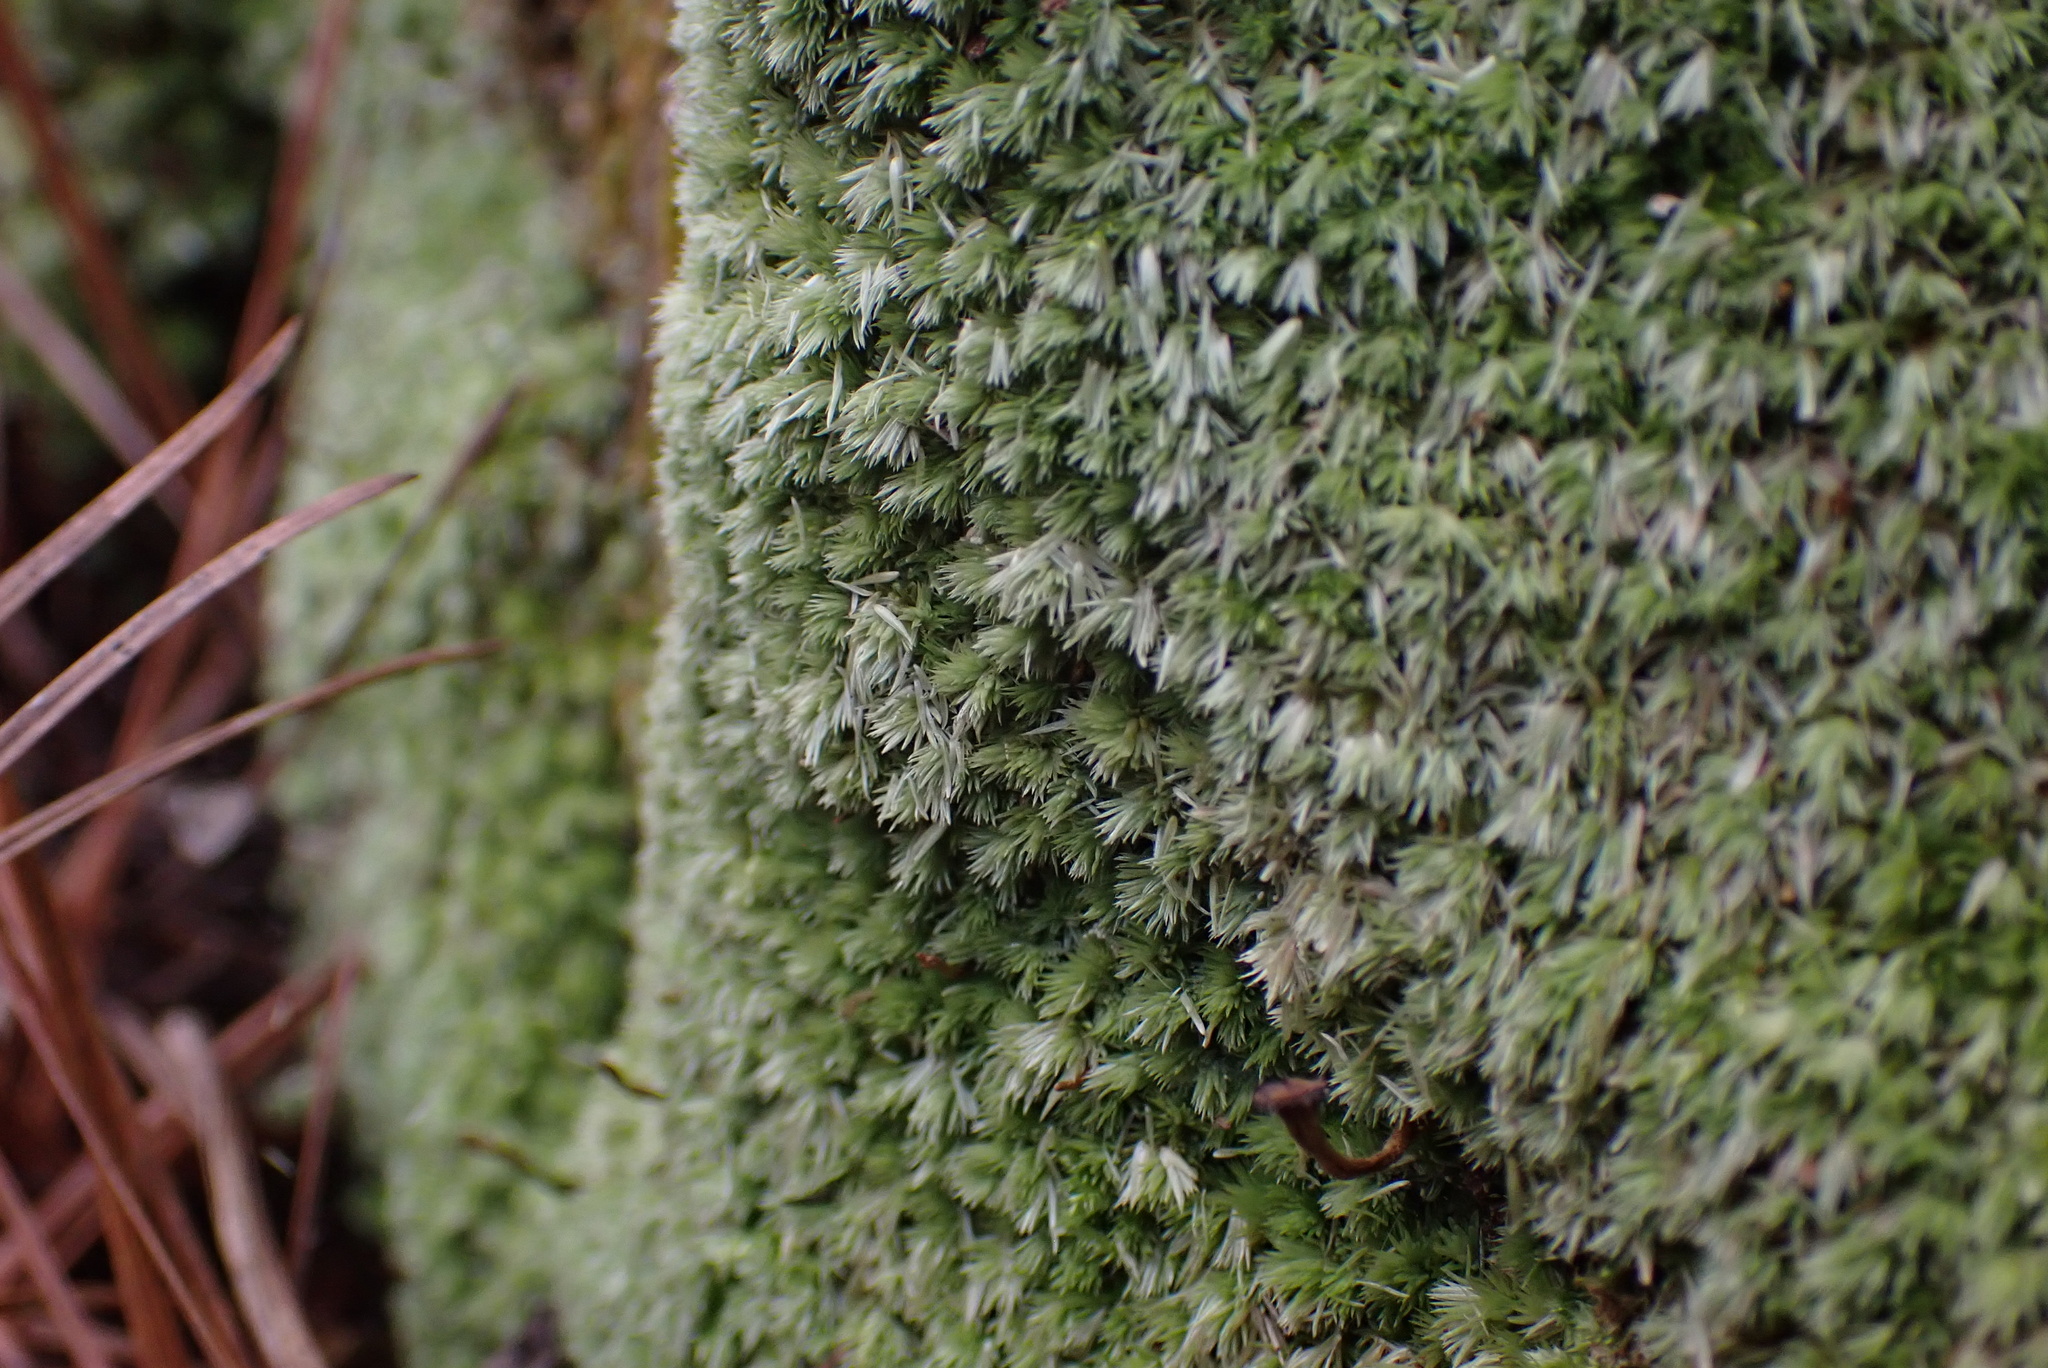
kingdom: Plantae
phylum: Bryophyta
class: Bryopsida
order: Dicranales
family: Leucobryaceae
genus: Leucobryum
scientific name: Leucobryum albidum
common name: White moss
